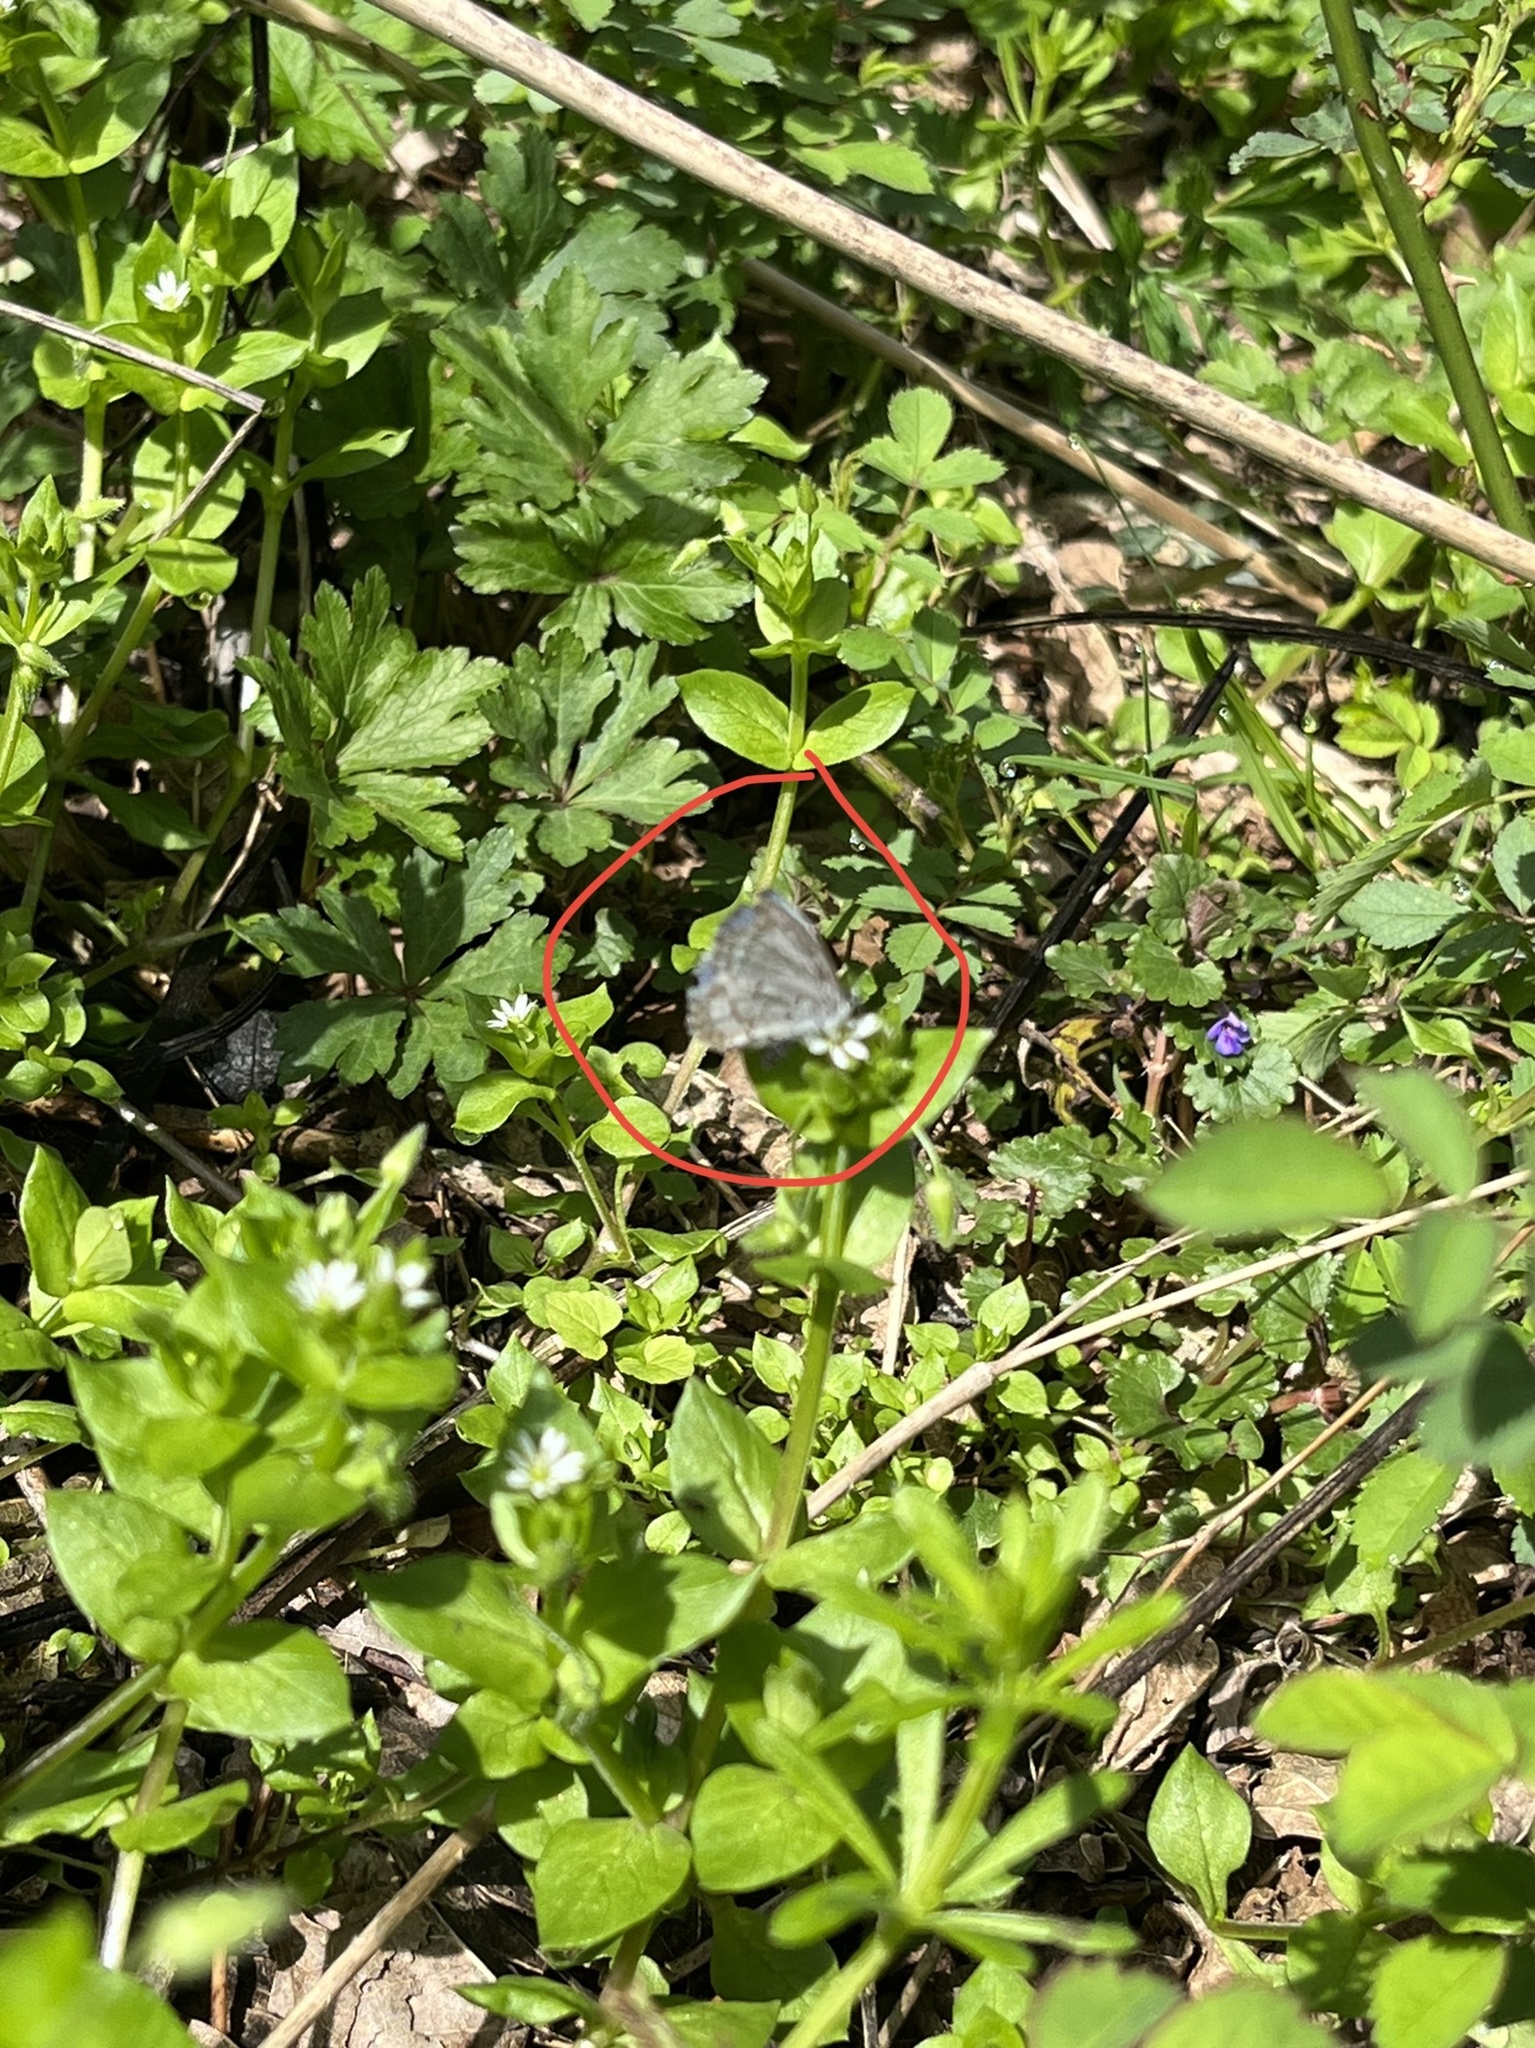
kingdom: Animalia
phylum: Arthropoda
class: Insecta
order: Lepidoptera
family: Lycaenidae
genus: Celastrina
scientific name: Celastrina ladon
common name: Spring azure
